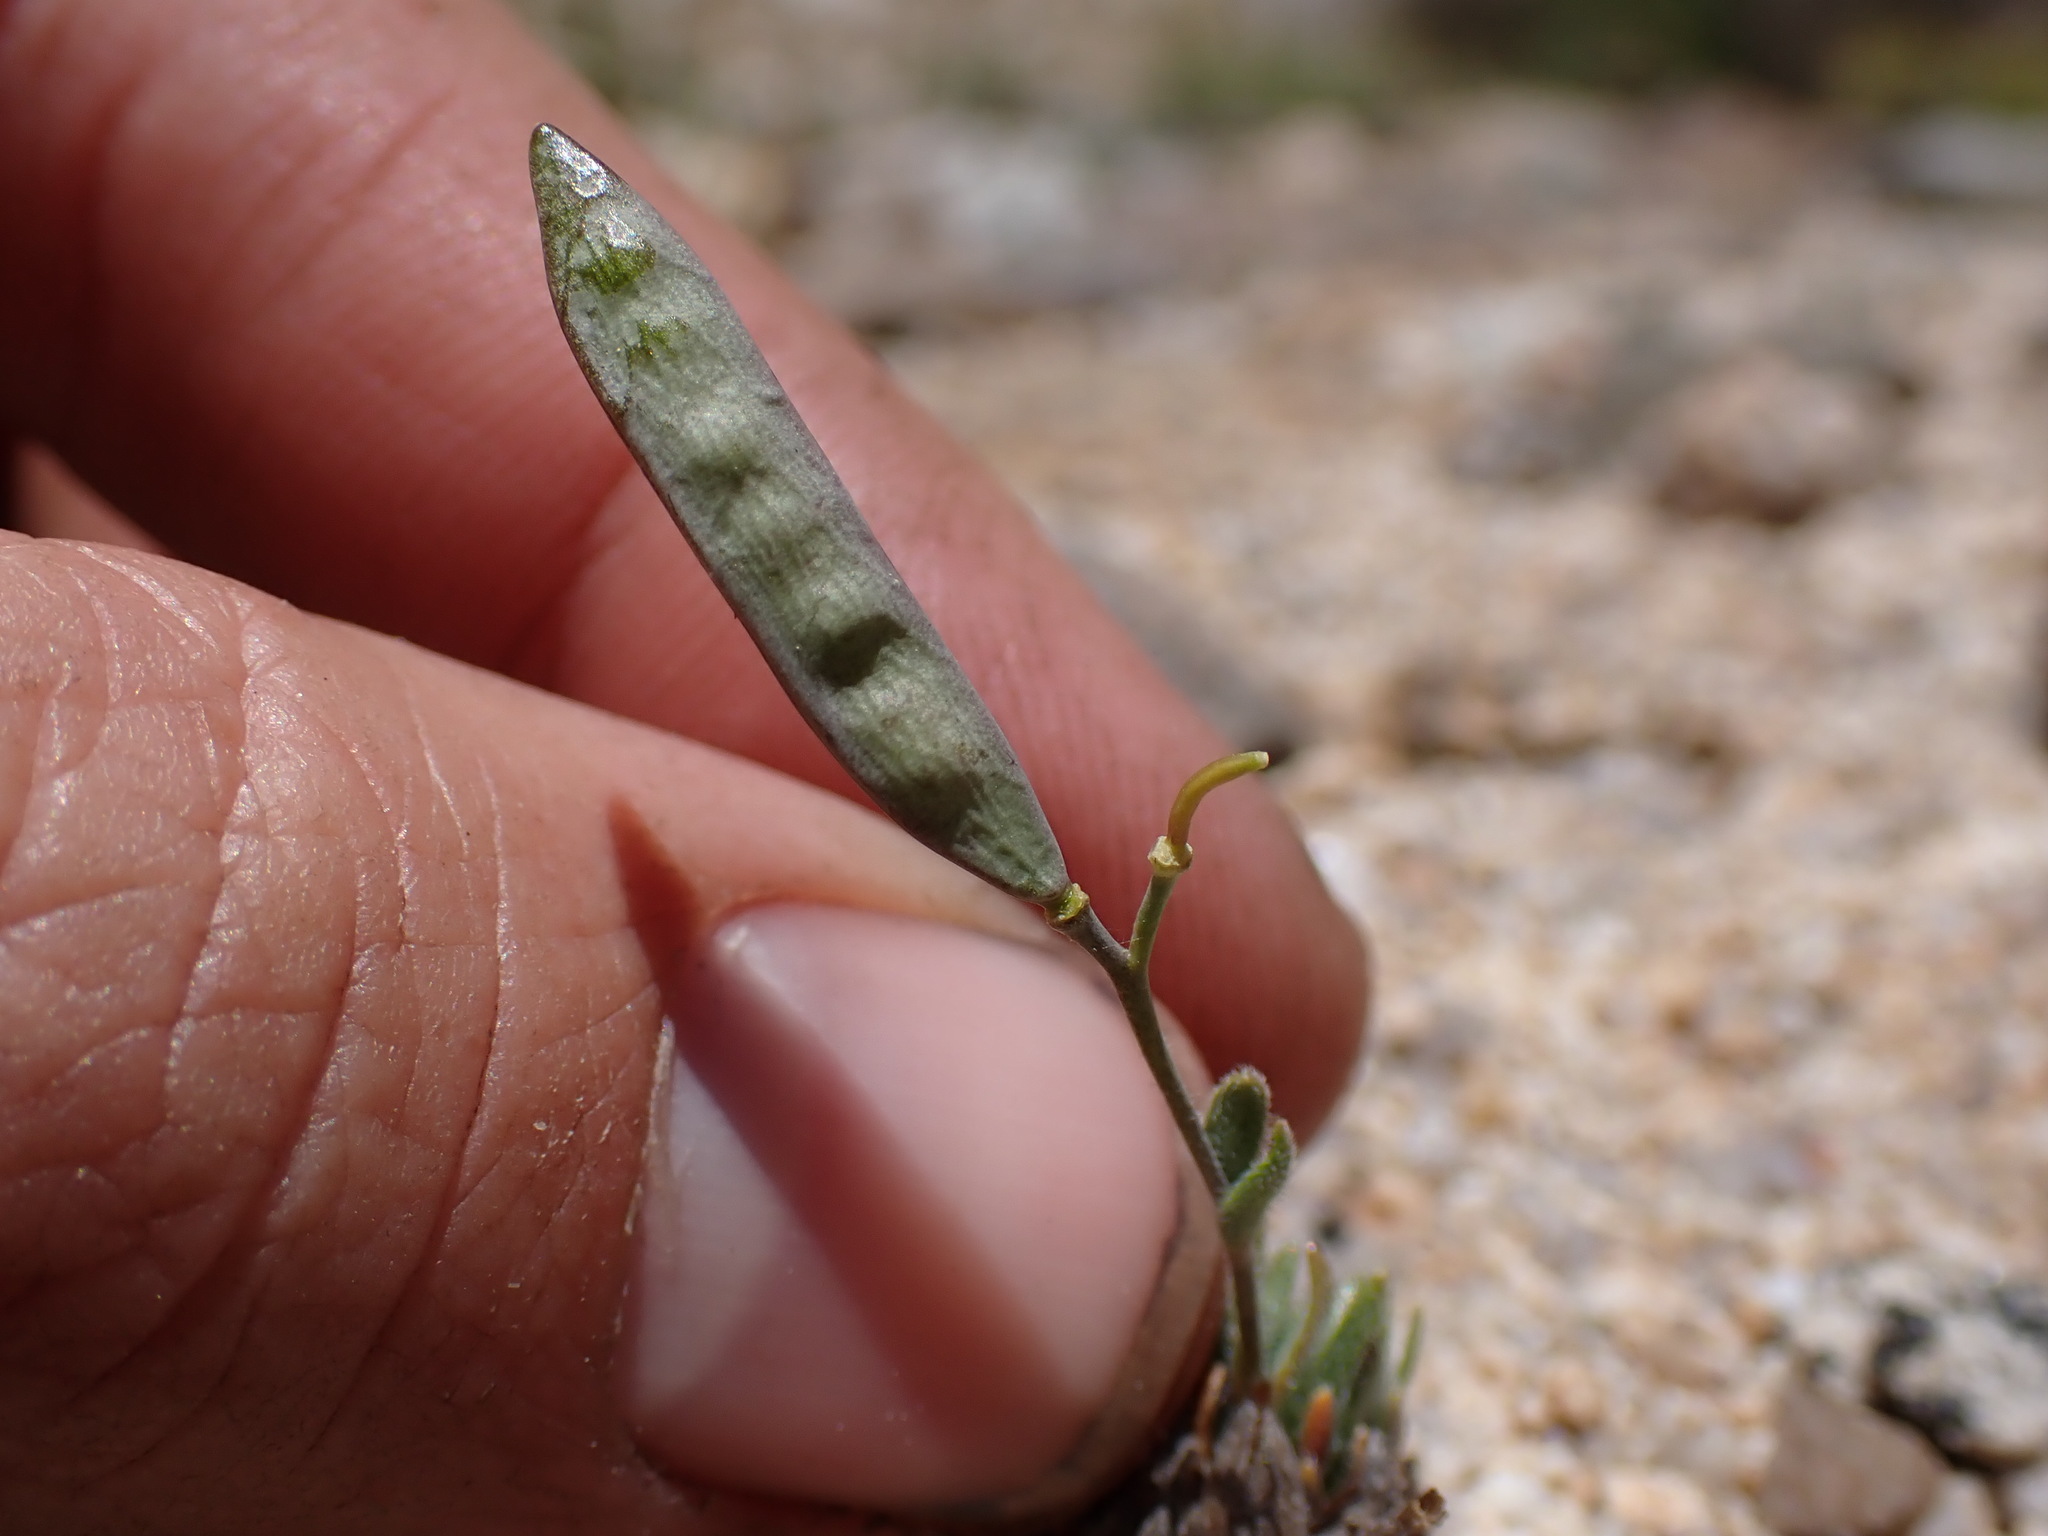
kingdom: Plantae
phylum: Tracheophyta
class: Magnoliopsida
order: Brassicales
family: Brassicaceae
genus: Boechera
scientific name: Boechera pygmaea
